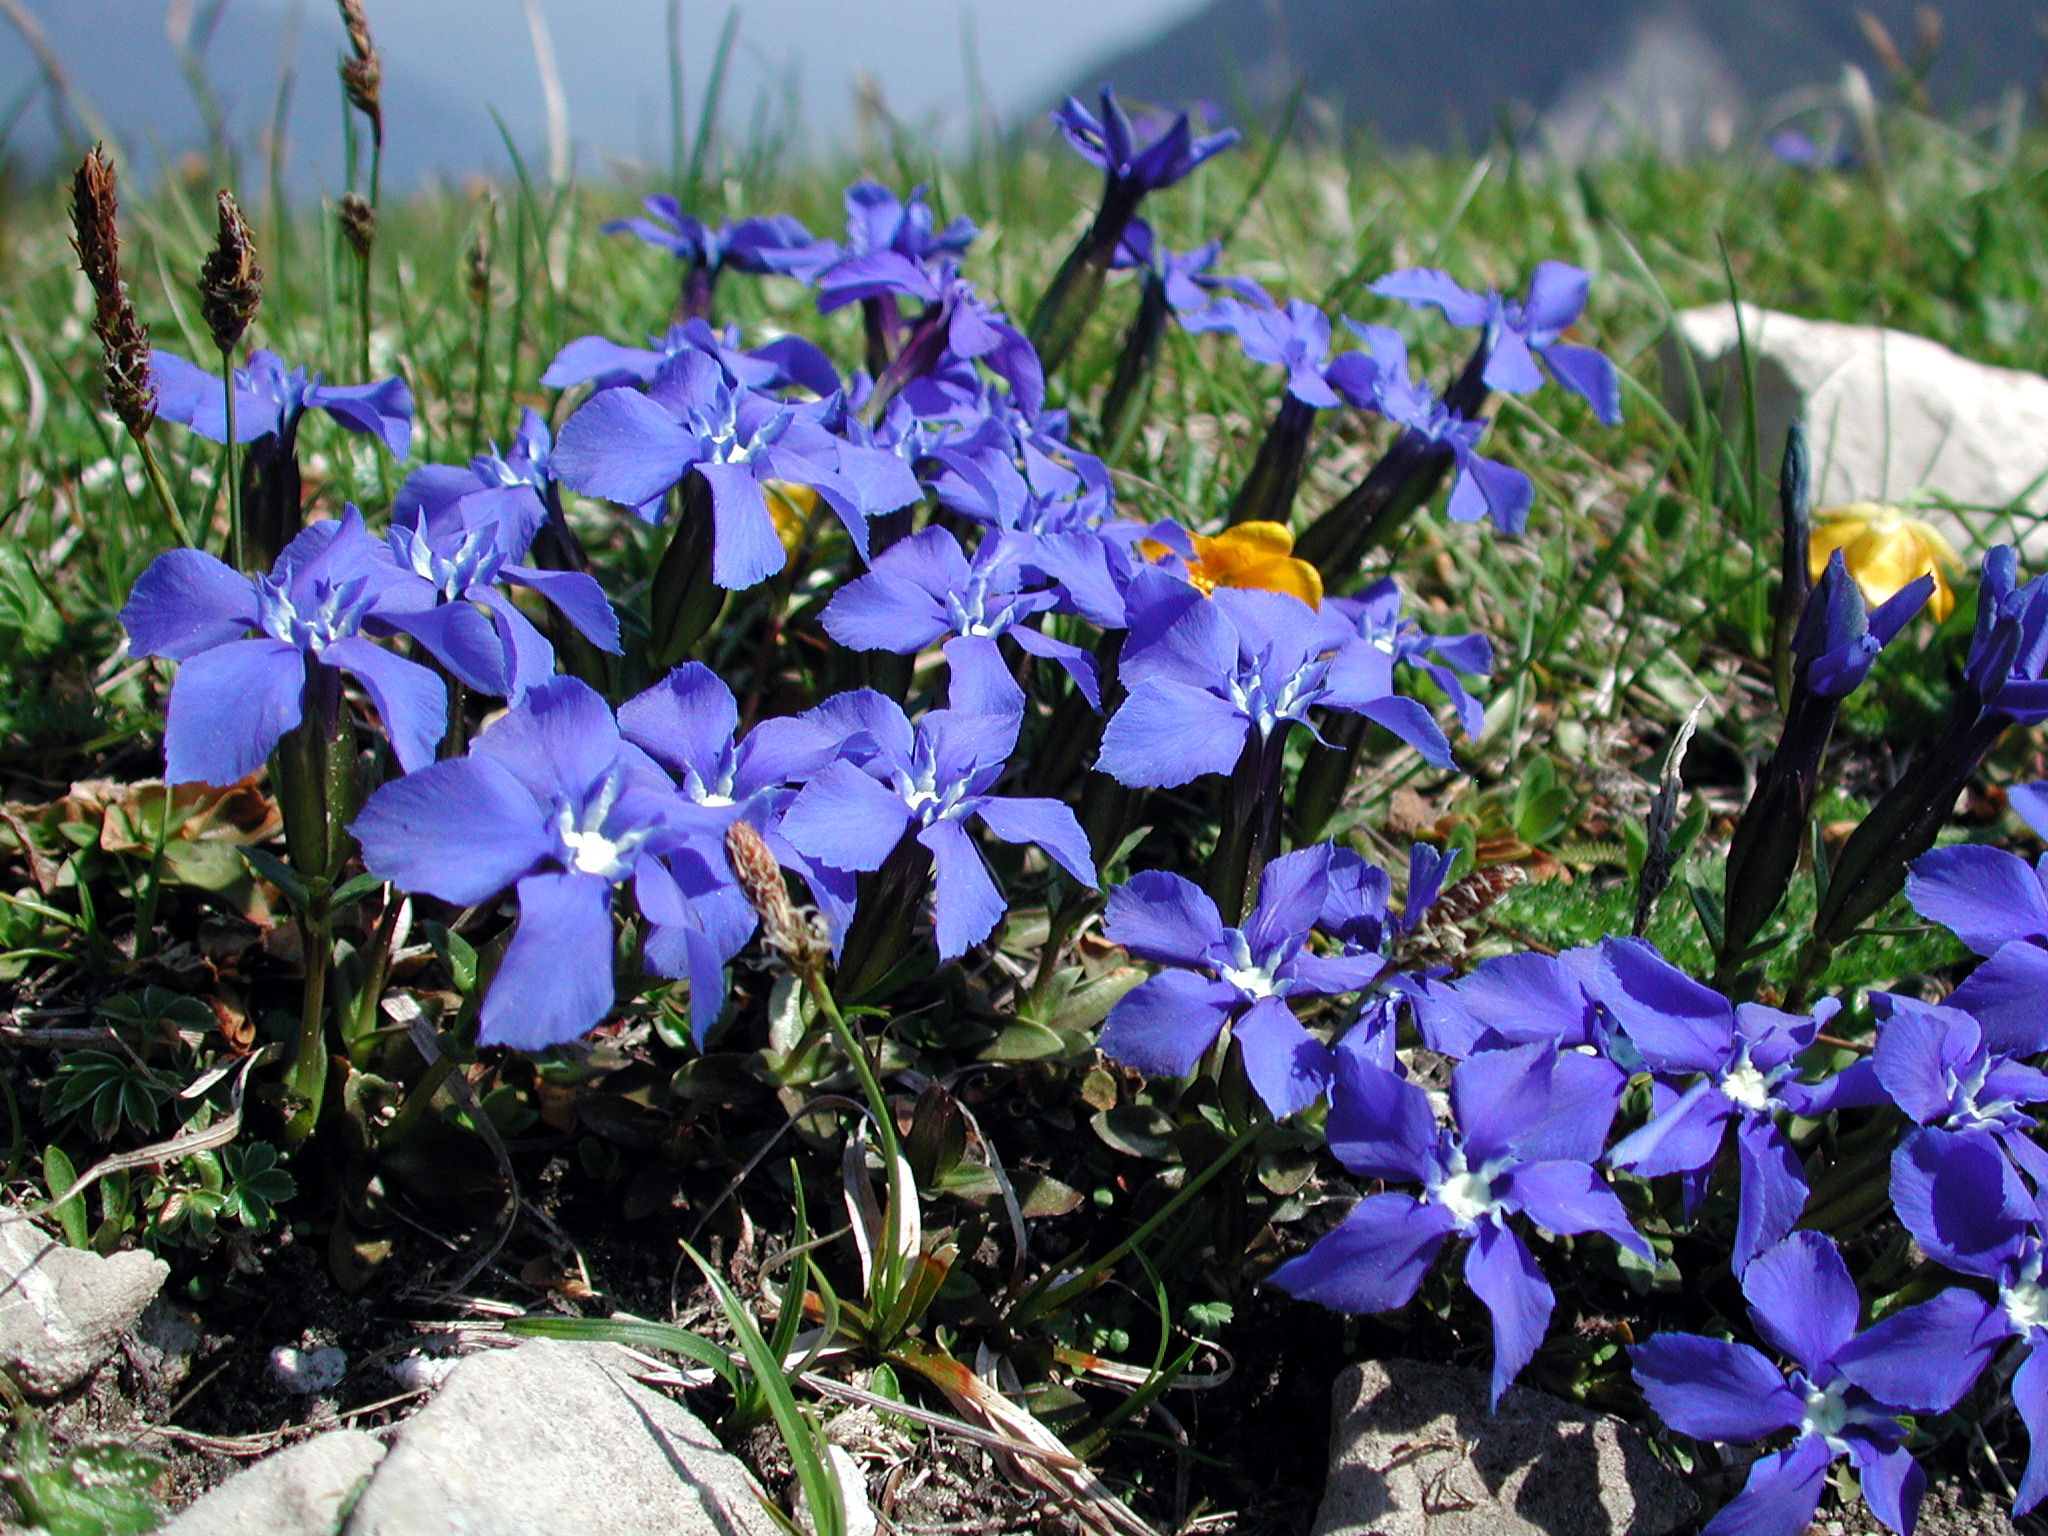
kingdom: Plantae
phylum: Tracheophyta
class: Magnoliopsida
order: Gentianales
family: Gentianaceae
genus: Gentiana
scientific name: Gentiana verna
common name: Spring gentian
